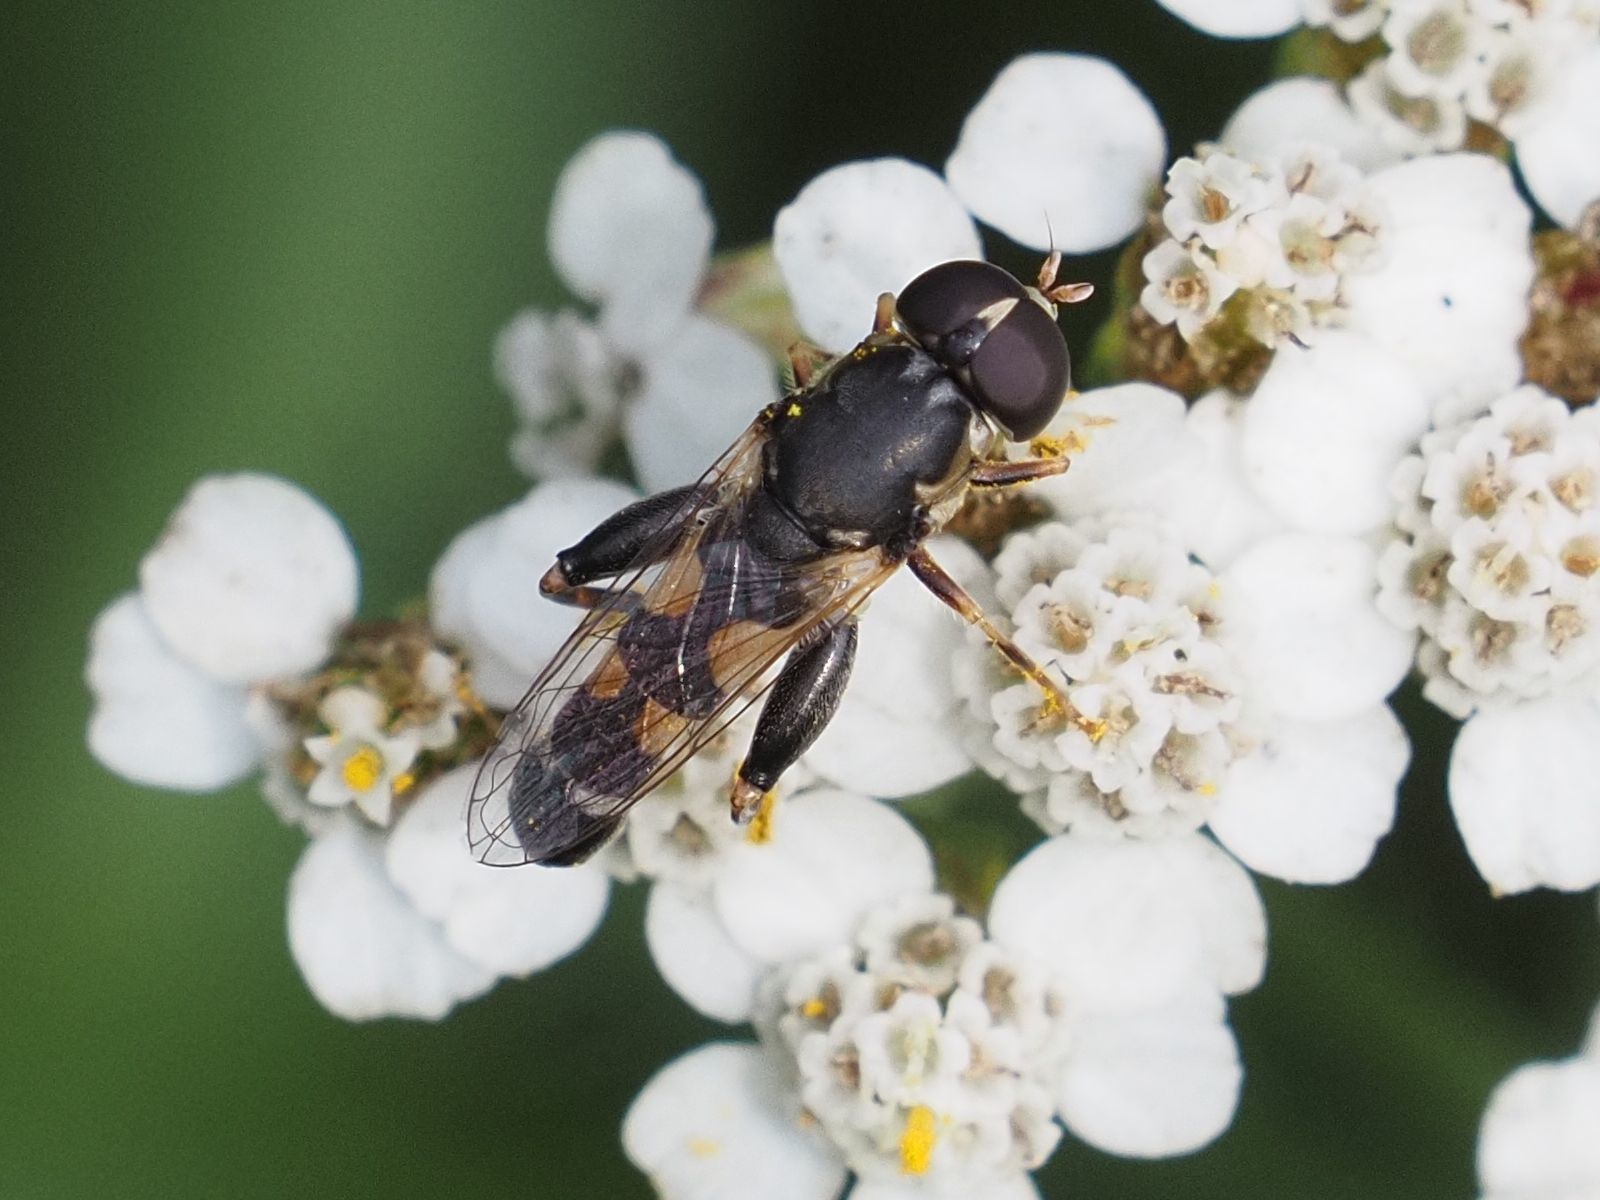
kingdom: Animalia
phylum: Arthropoda
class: Insecta
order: Diptera
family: Syrphidae
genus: Syritta
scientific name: Syritta pipiens
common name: Hover fly
